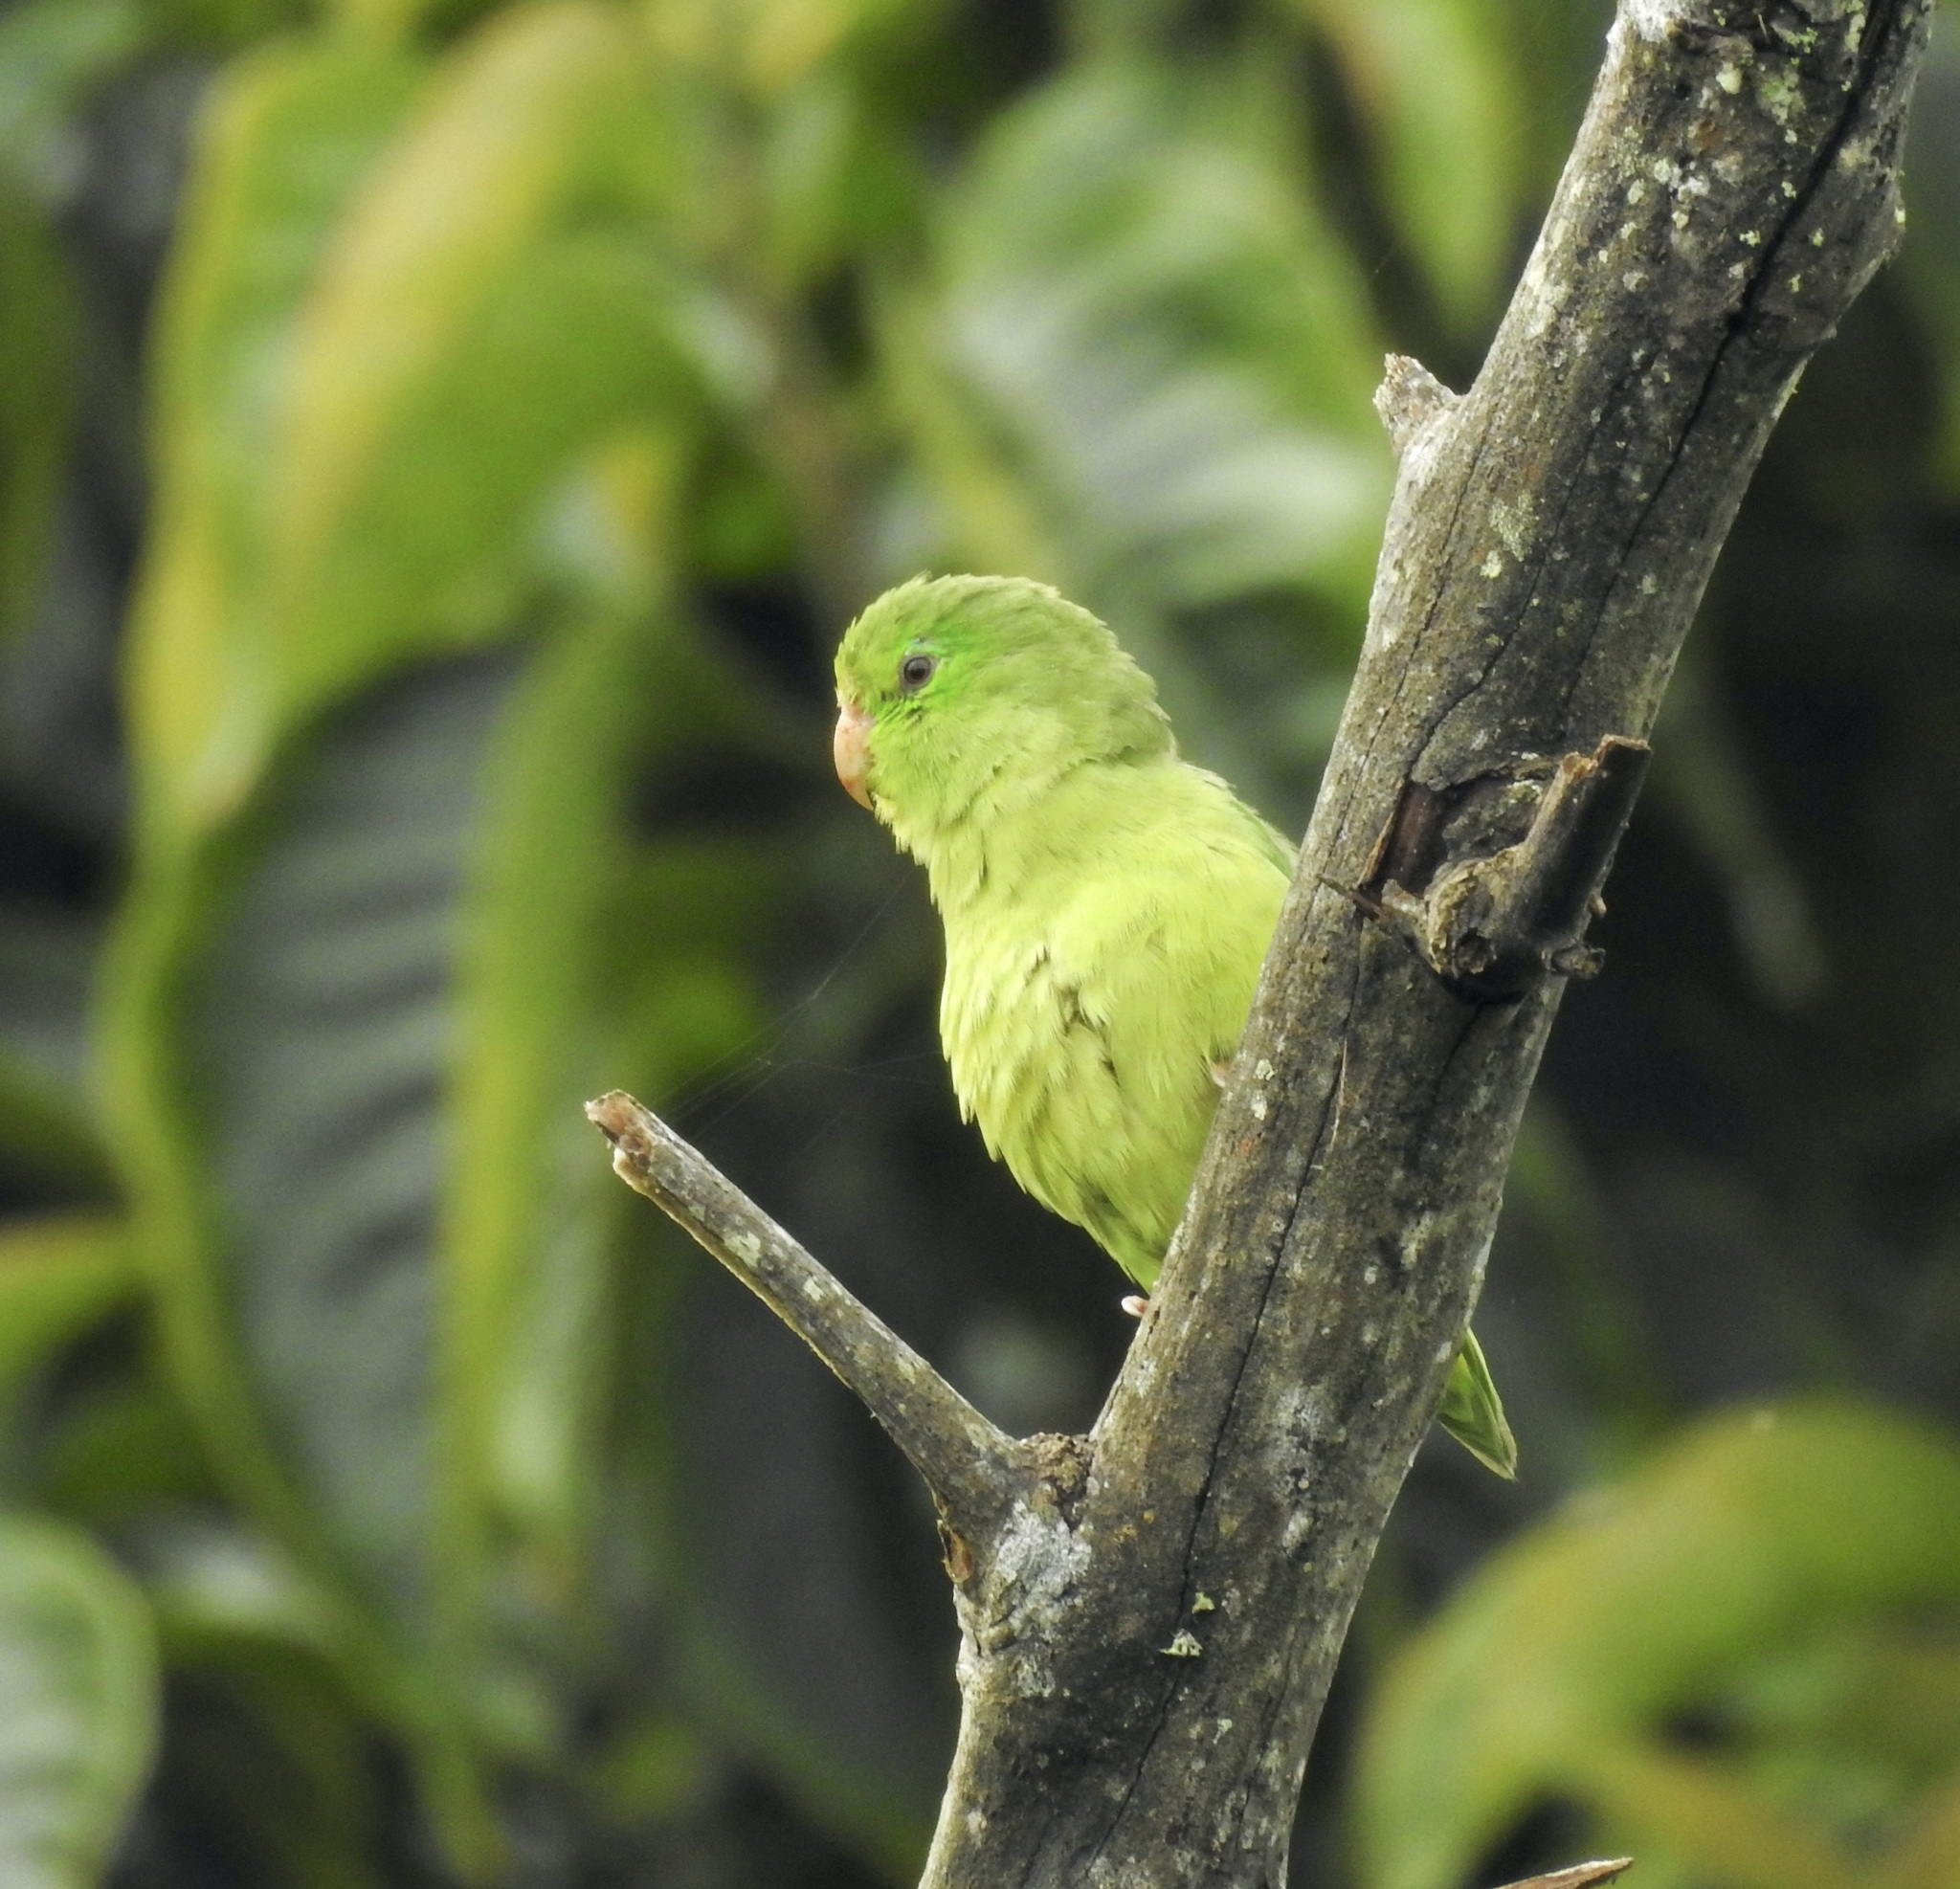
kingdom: Animalia
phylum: Chordata
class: Aves
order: Psittaciformes
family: Psittacidae
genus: Forpus
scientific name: Forpus conspicillatus
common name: Spectacled parrotlet
